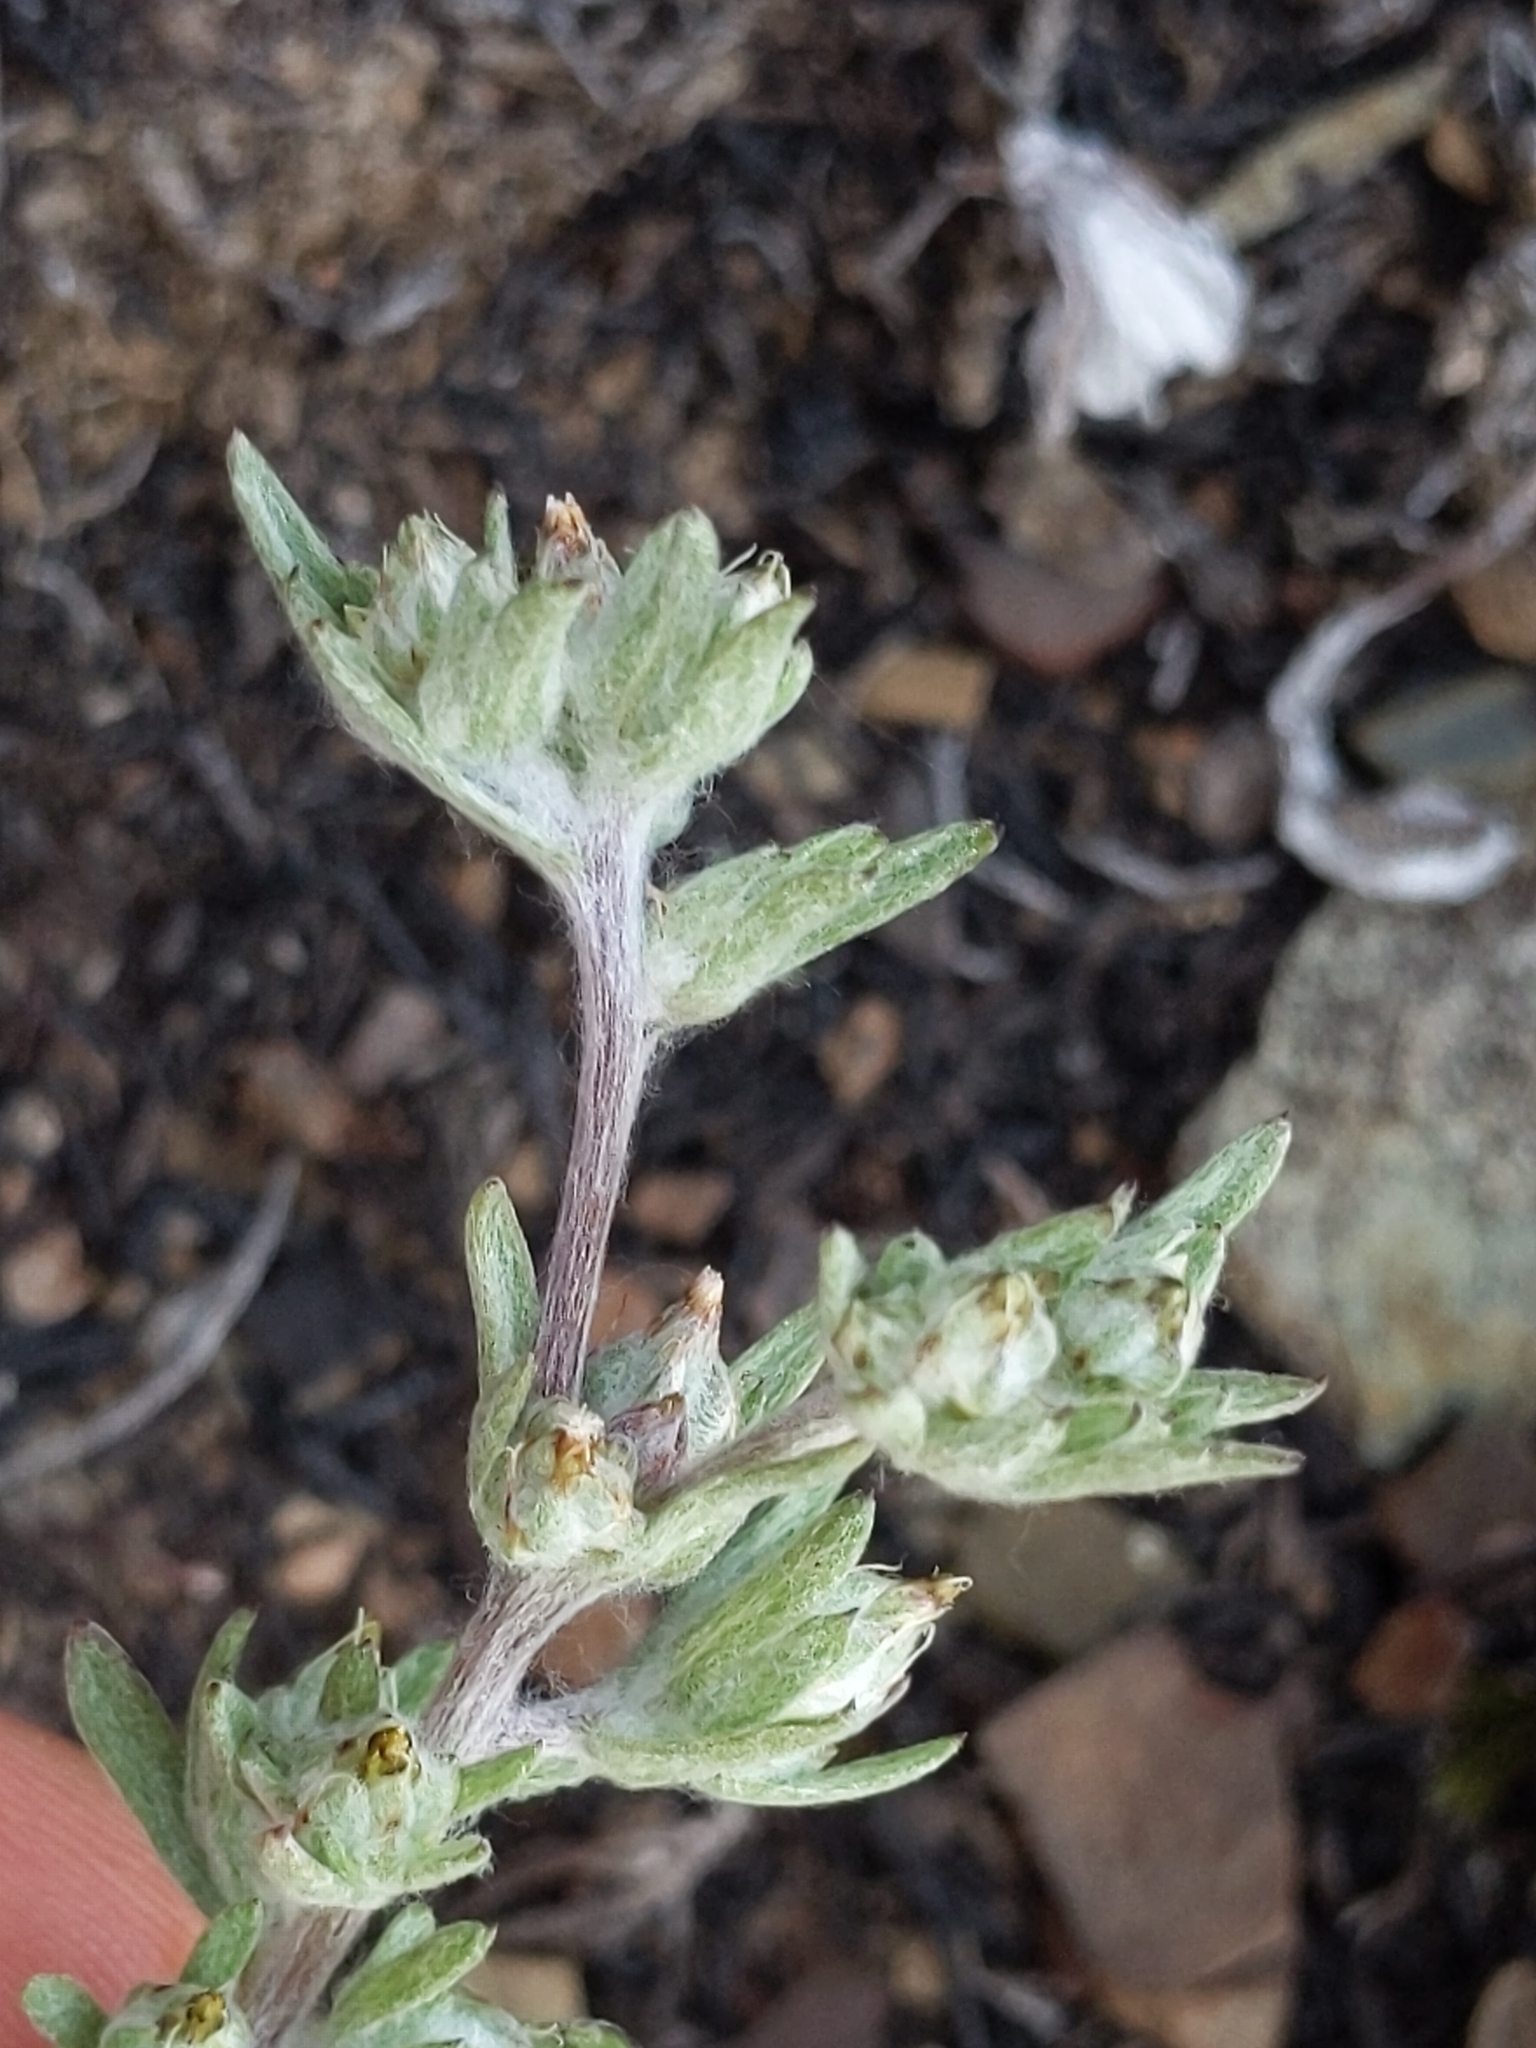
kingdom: Plantae
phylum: Tracheophyta
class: Magnoliopsida
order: Asterales
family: Asteraceae
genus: Logfia
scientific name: Logfia californica
